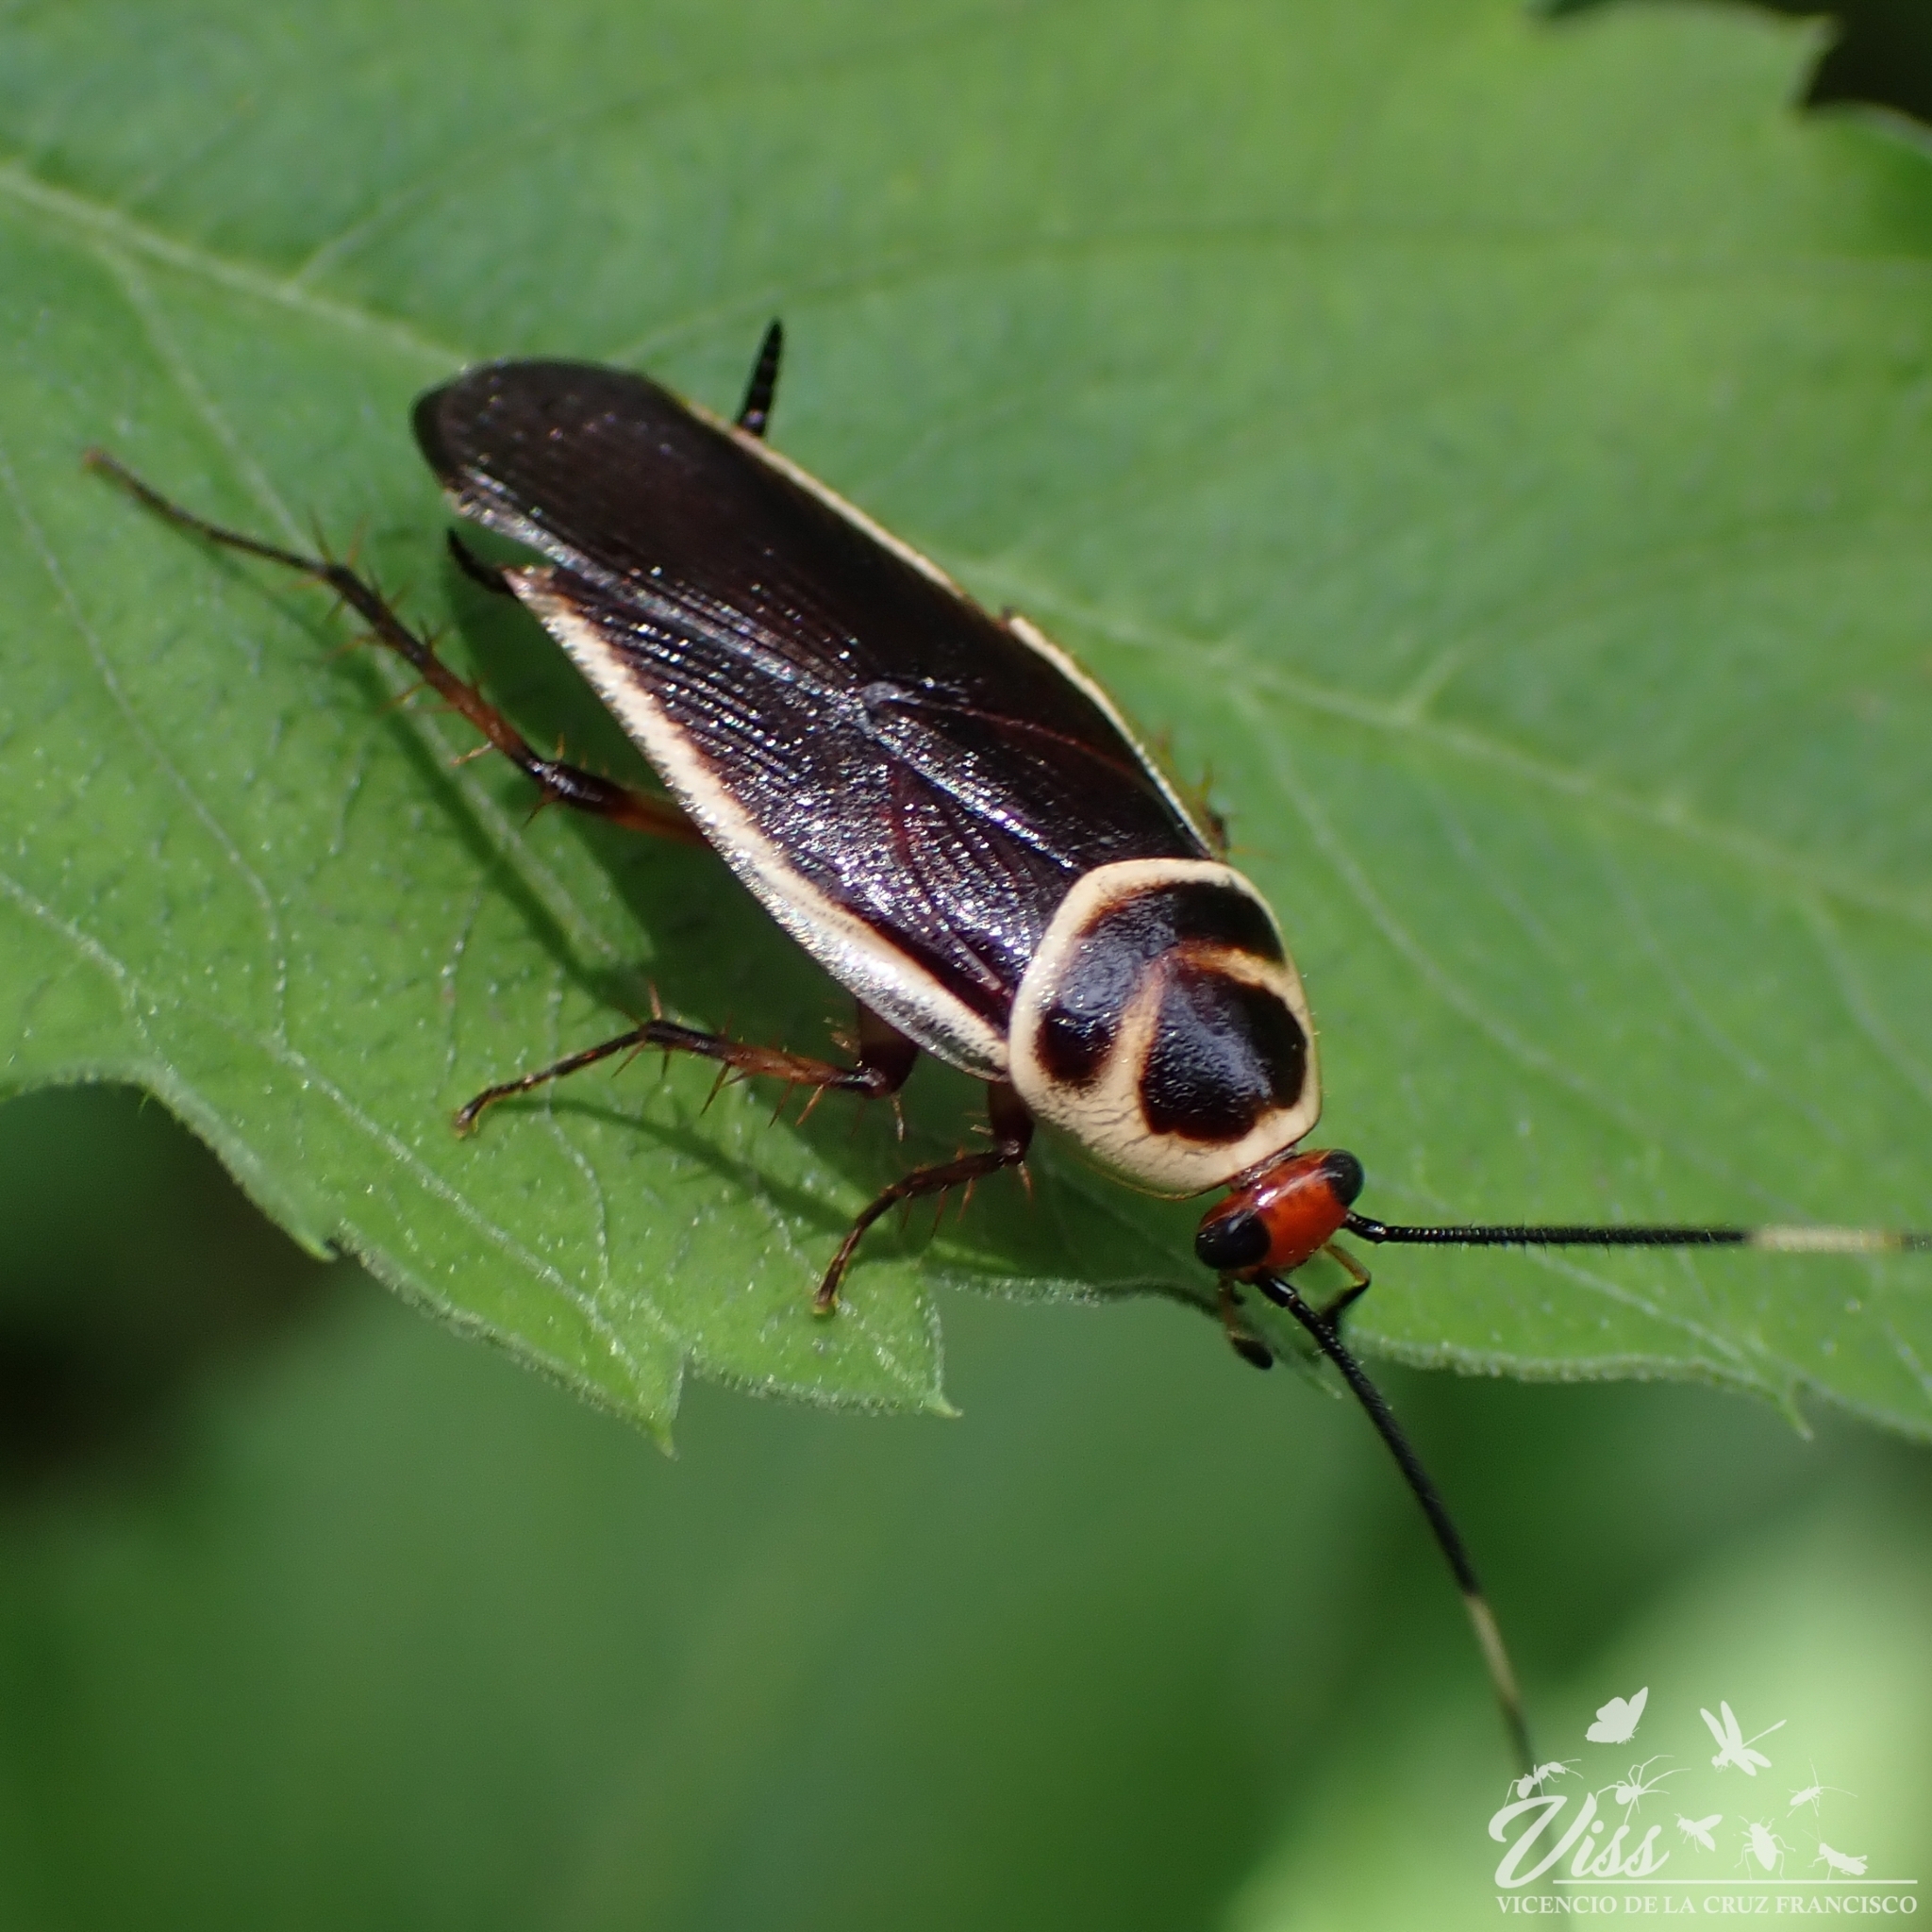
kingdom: Animalia
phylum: Arthropoda
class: Insecta
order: Blattodea
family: Ectobiidae
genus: Pseudomops
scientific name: Pseudomops interceptus
